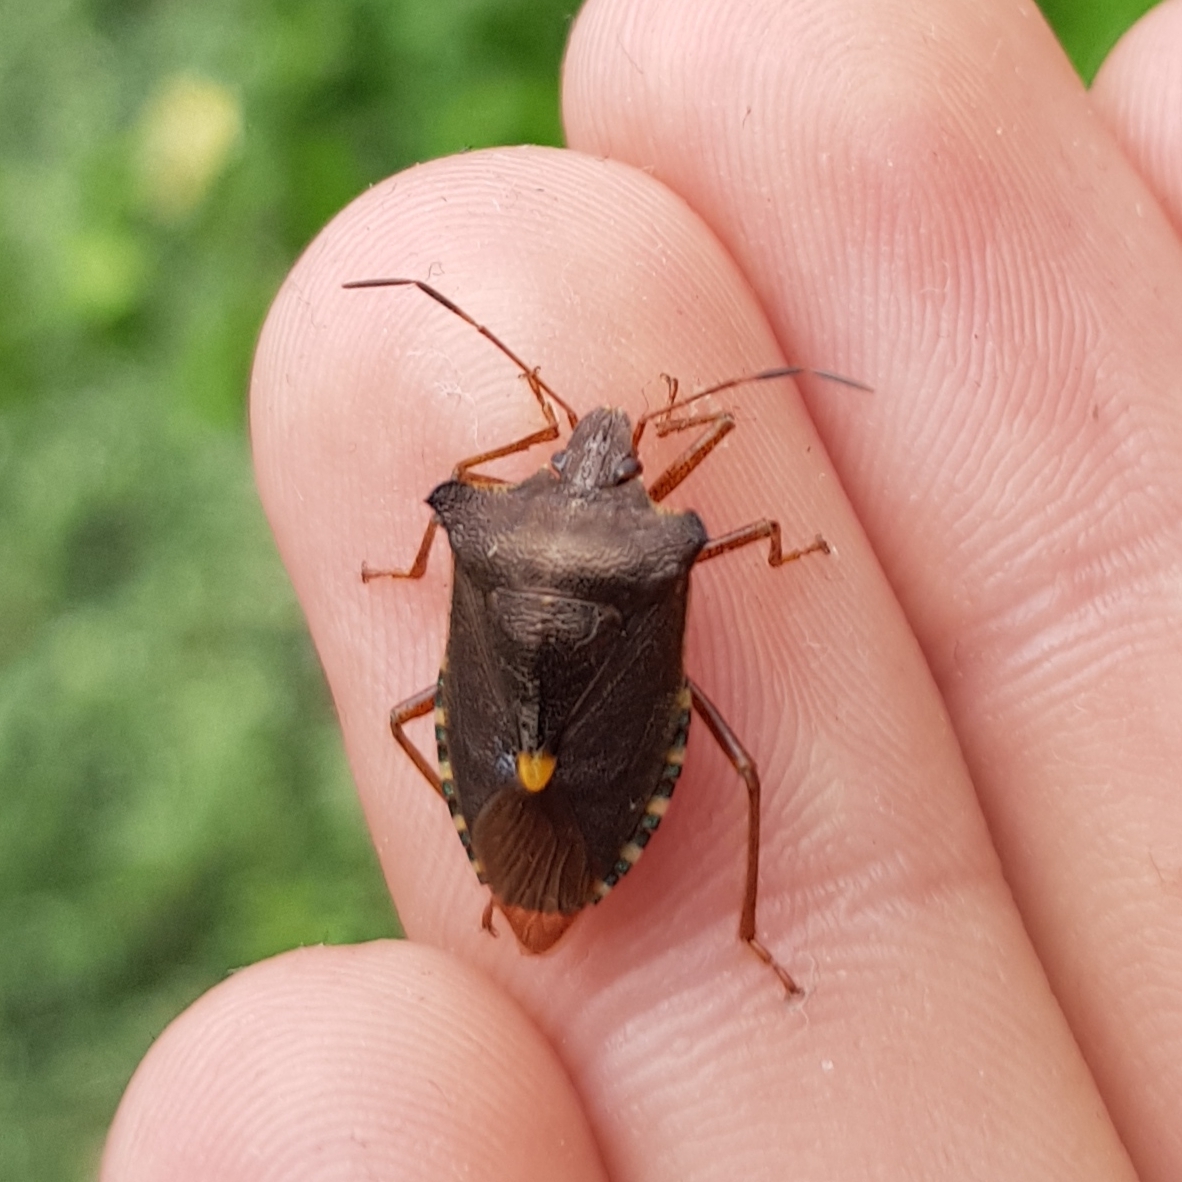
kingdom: Animalia
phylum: Arthropoda
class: Insecta
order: Hemiptera
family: Pentatomidae
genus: Pentatoma
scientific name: Pentatoma rufipes
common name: Forest bug
